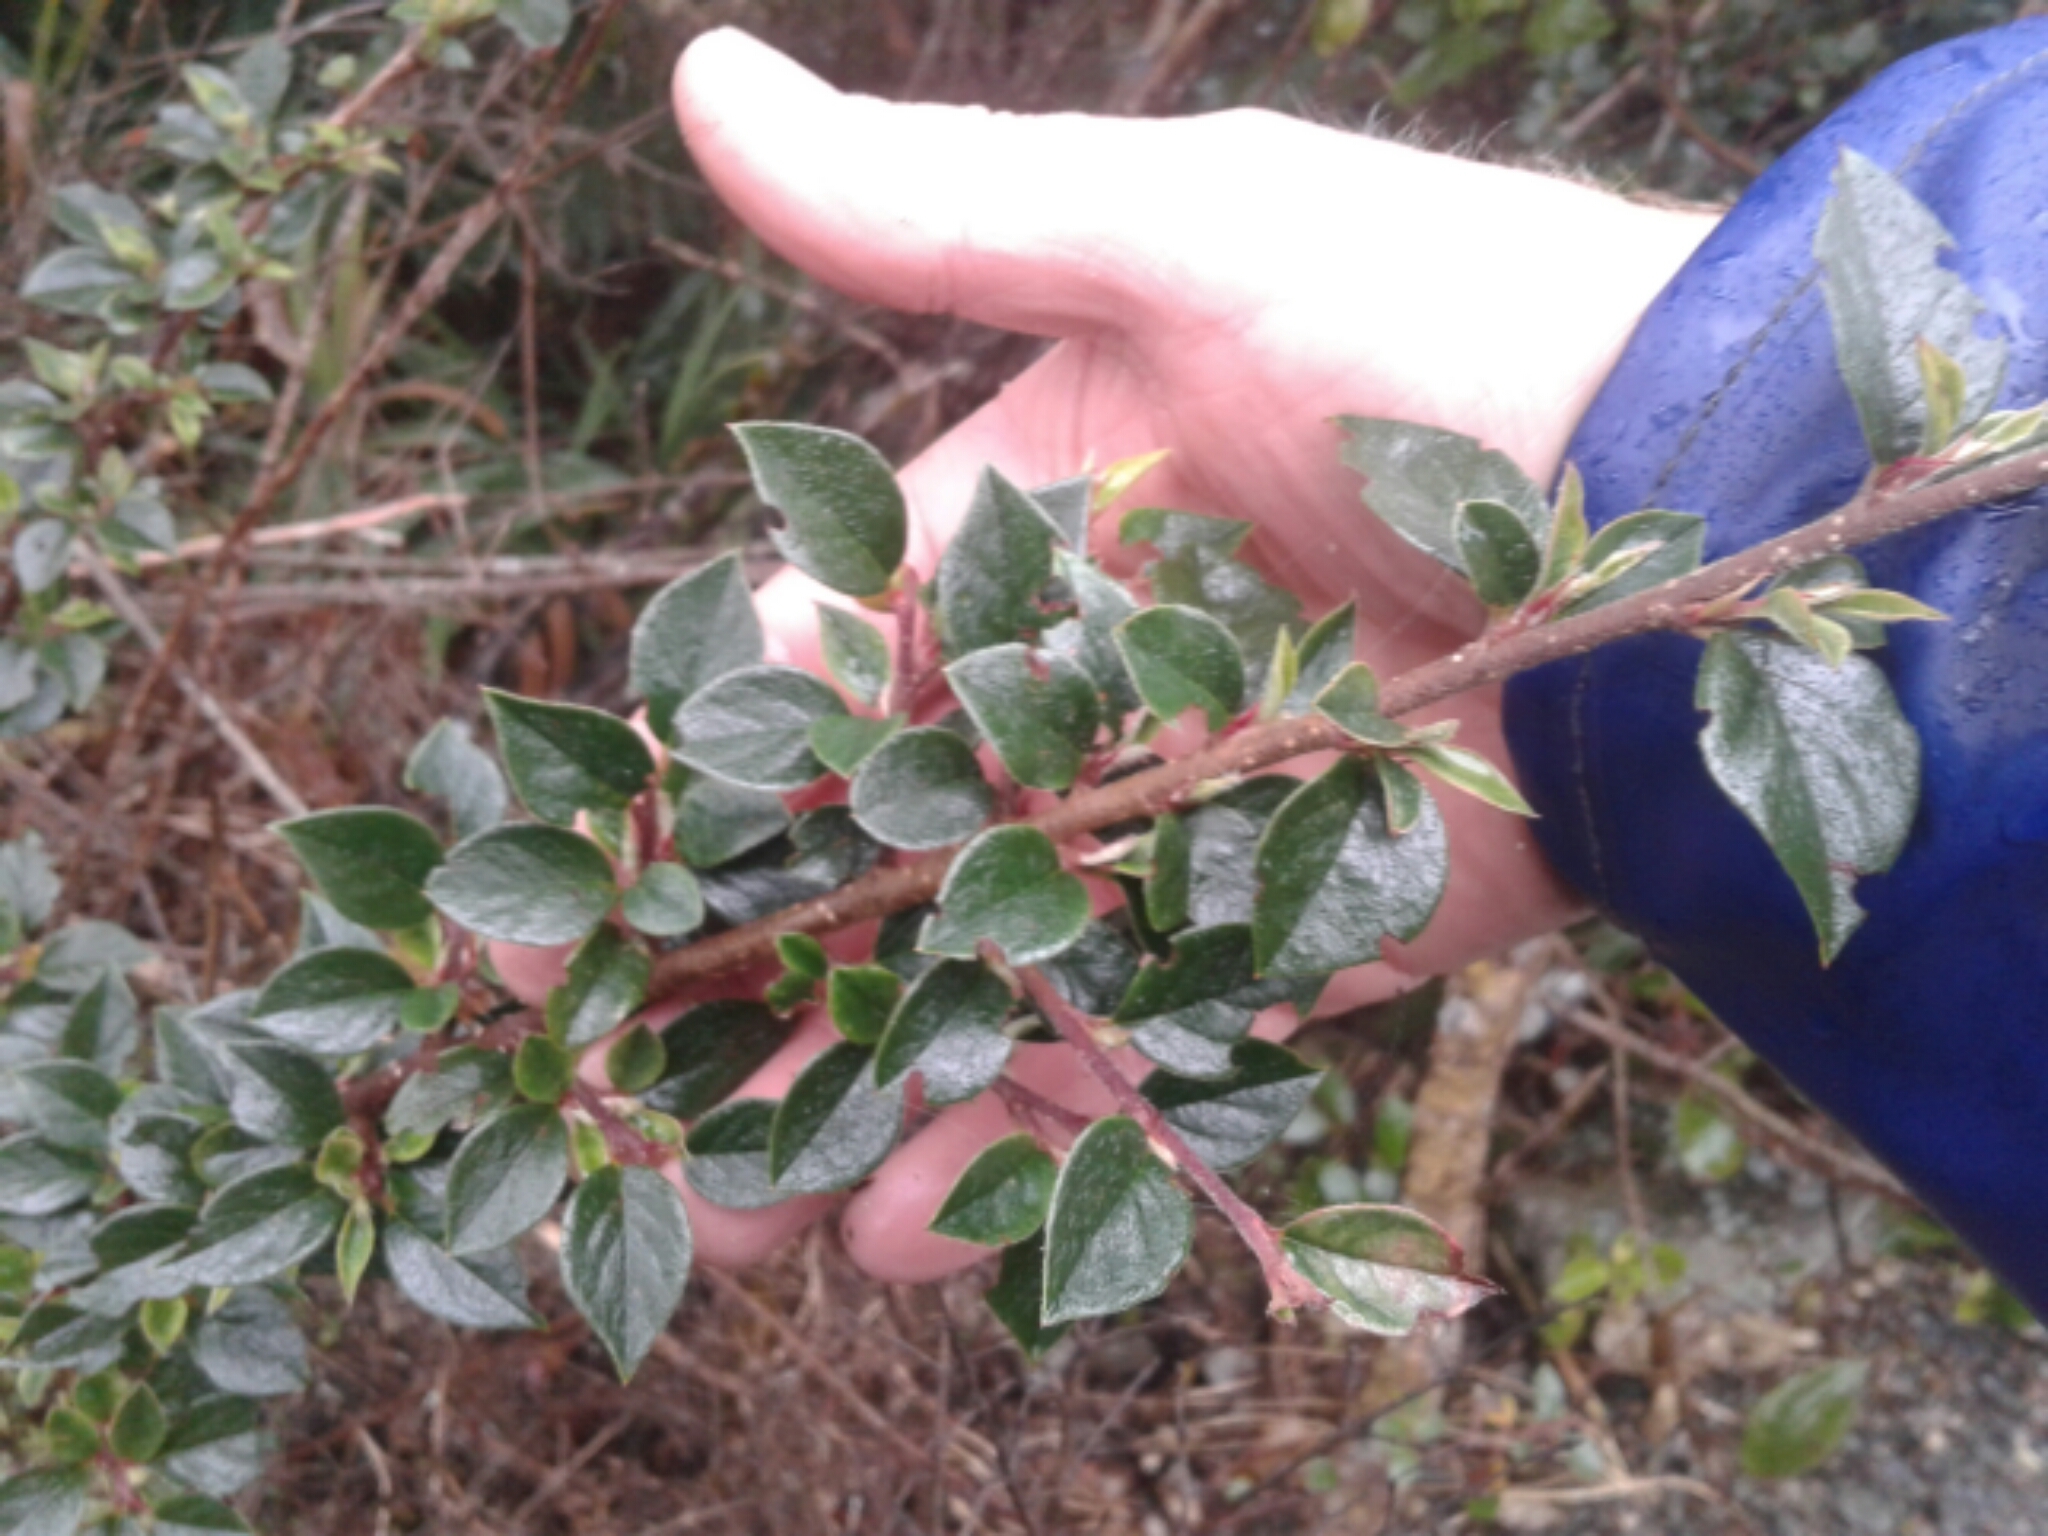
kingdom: Plantae
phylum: Tracheophyta
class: Magnoliopsida
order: Rosales
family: Rosaceae
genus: Cotoneaster
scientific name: Cotoneaster simonsii
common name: Himalayan cotoneaster
